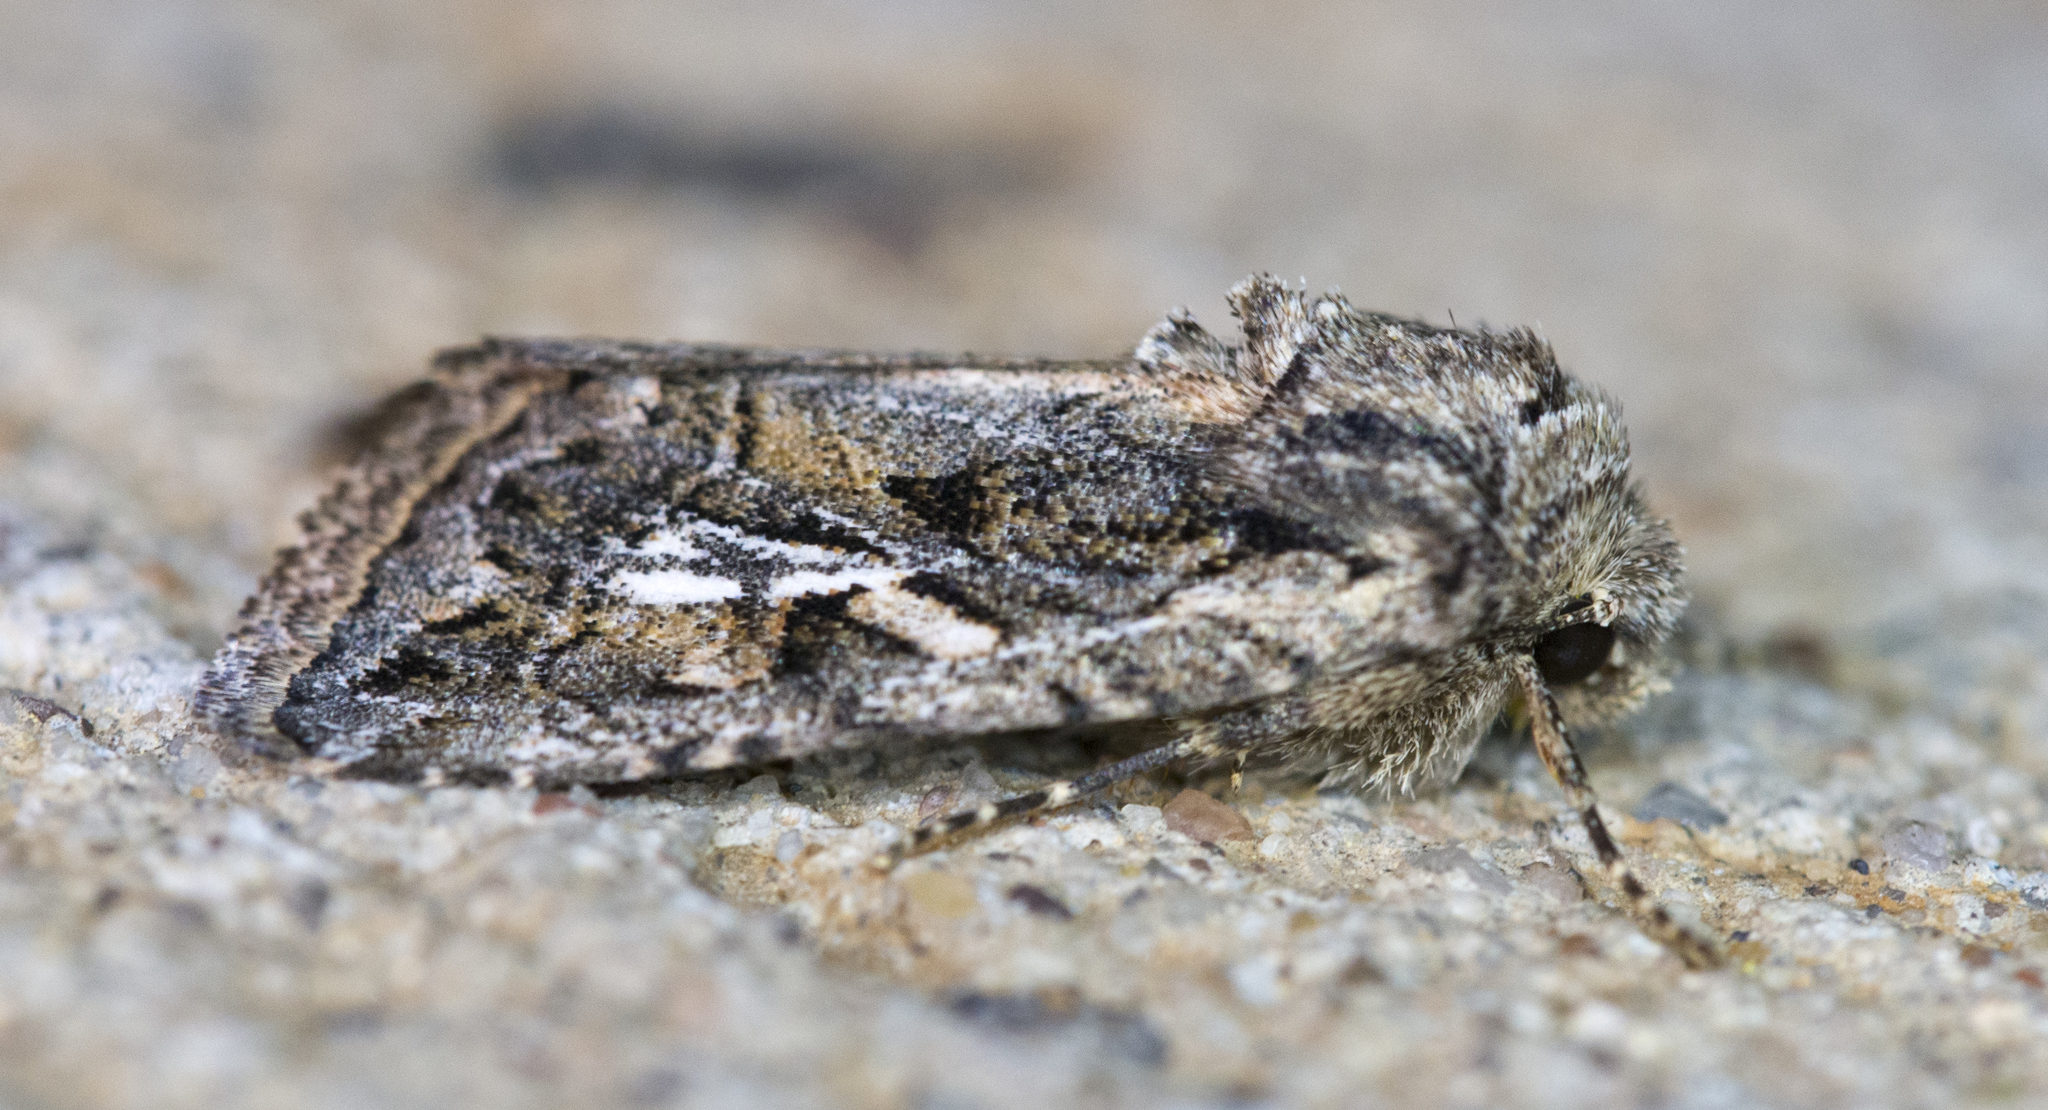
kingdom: Animalia
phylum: Arthropoda
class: Insecta
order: Lepidoptera
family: Noctuidae
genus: Ulolonche
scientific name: Ulolonche orbiculata
